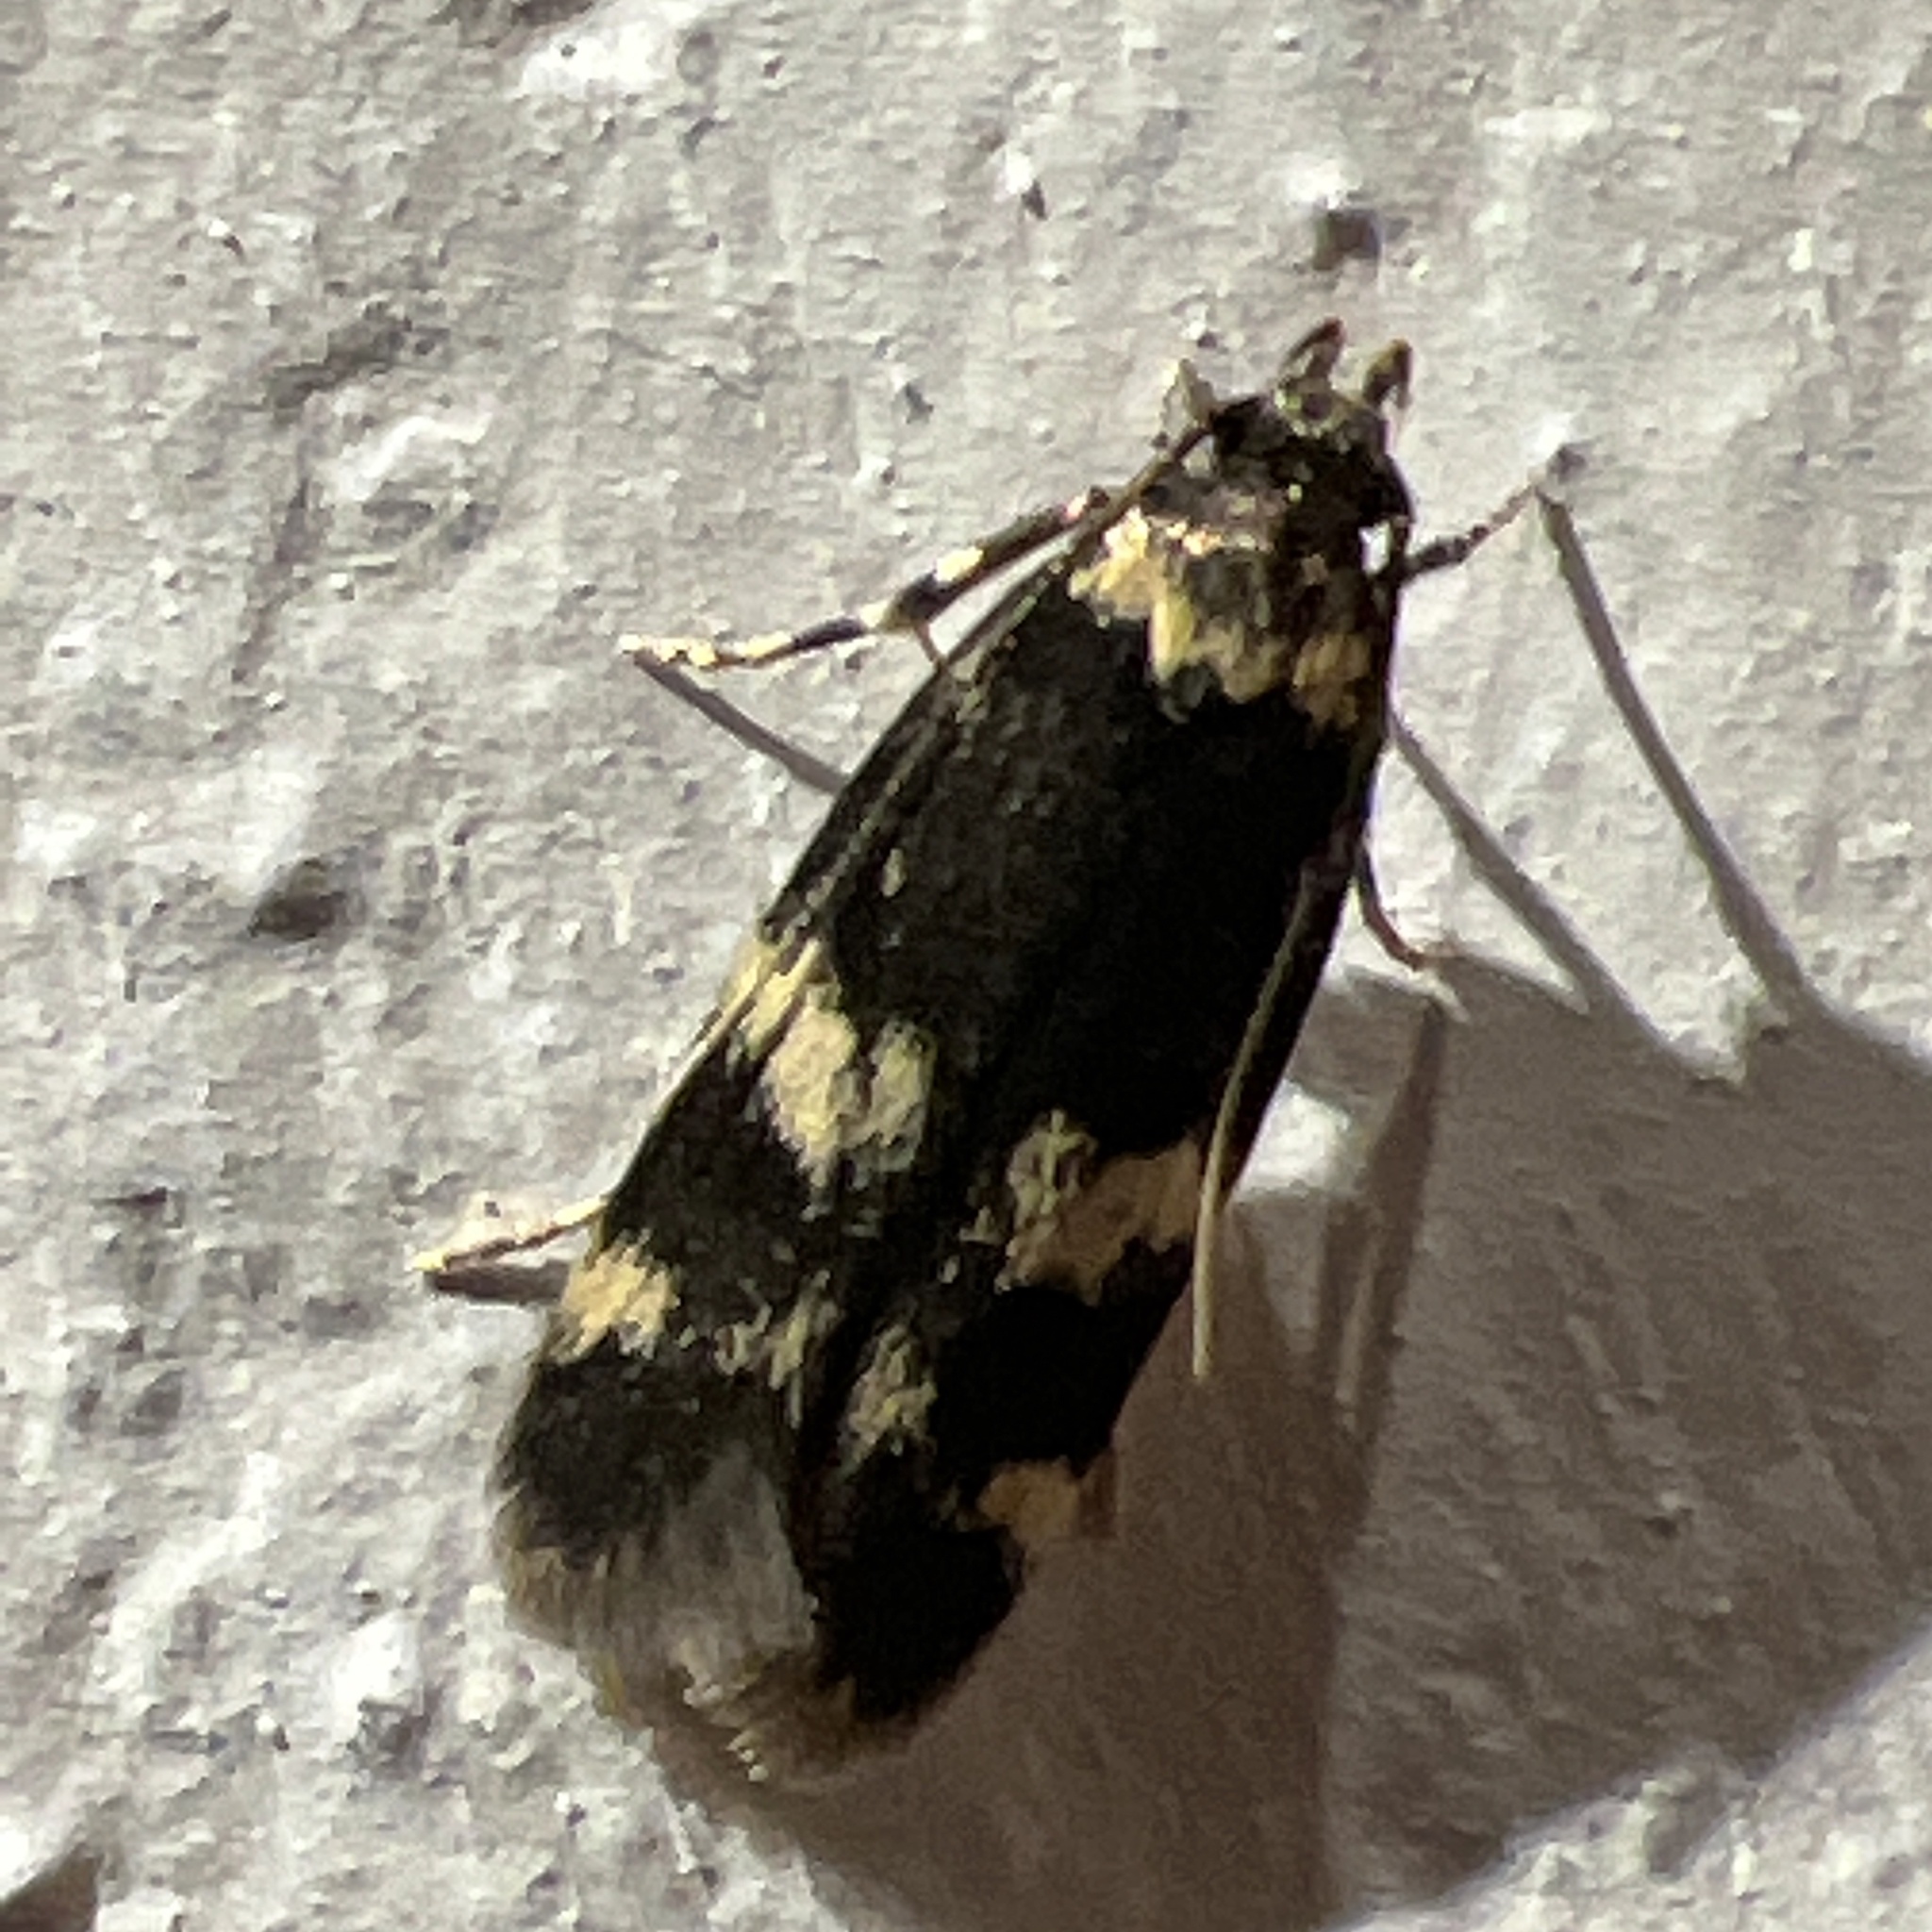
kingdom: Animalia
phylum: Arthropoda
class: Insecta
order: Lepidoptera
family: Autostichidae
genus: Oegoconia
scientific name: Oegoconia quadripuncta
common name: Four-spotted obscure
